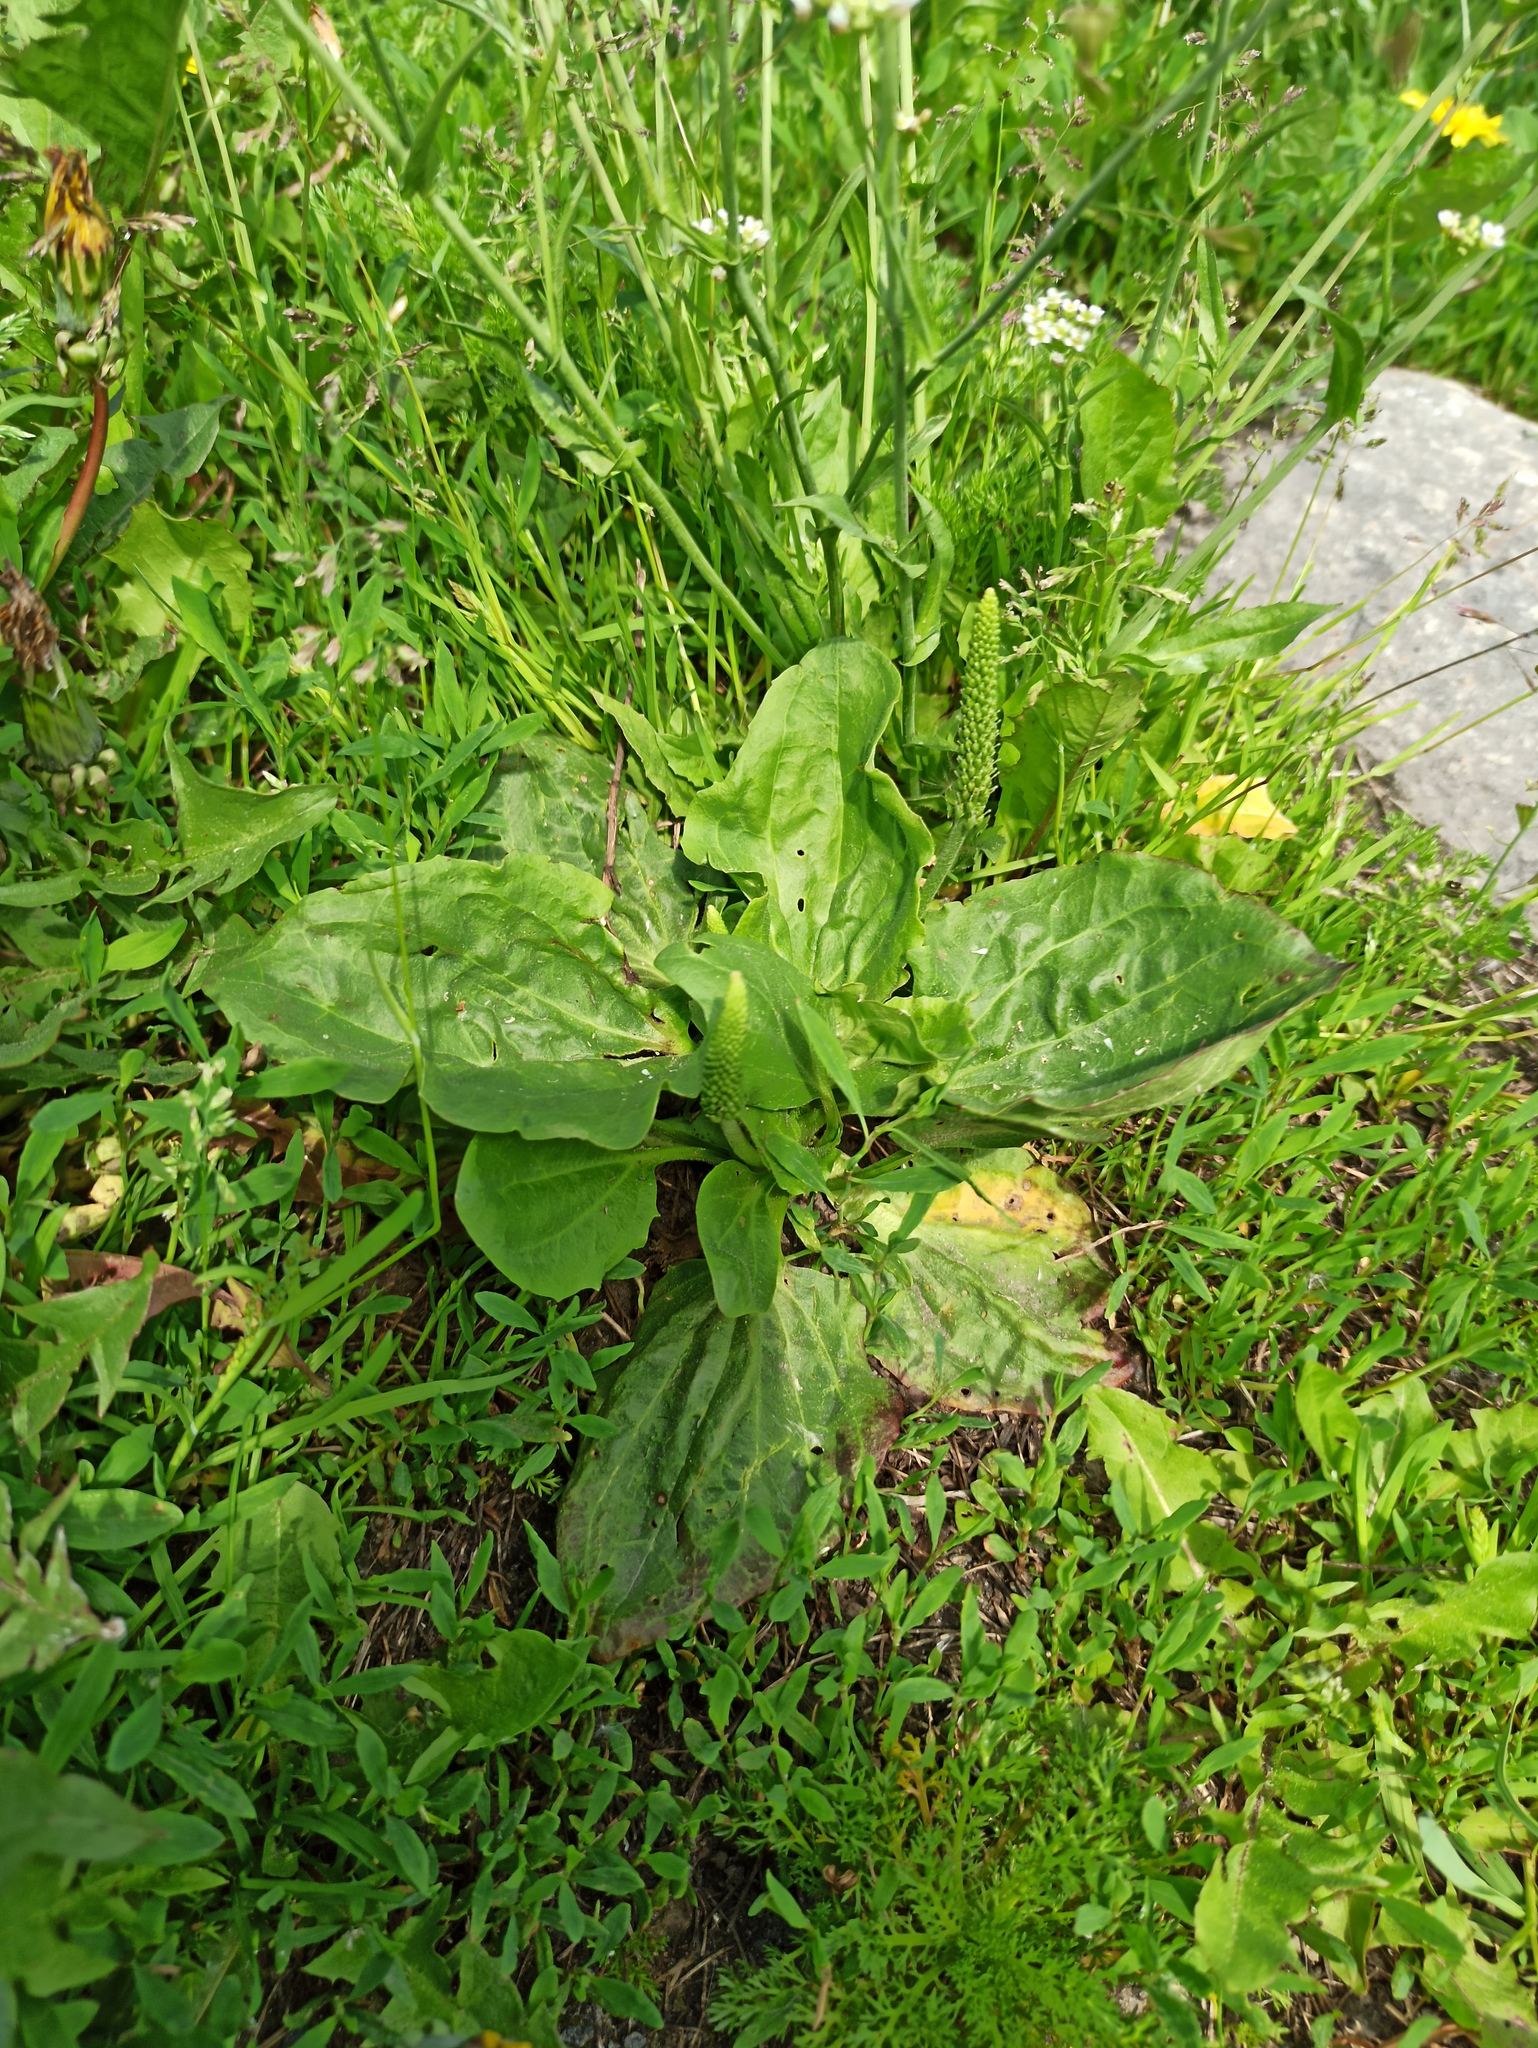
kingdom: Plantae
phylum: Tracheophyta
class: Magnoliopsida
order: Lamiales
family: Plantaginaceae
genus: Plantago
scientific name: Plantago major
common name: Common plantain
